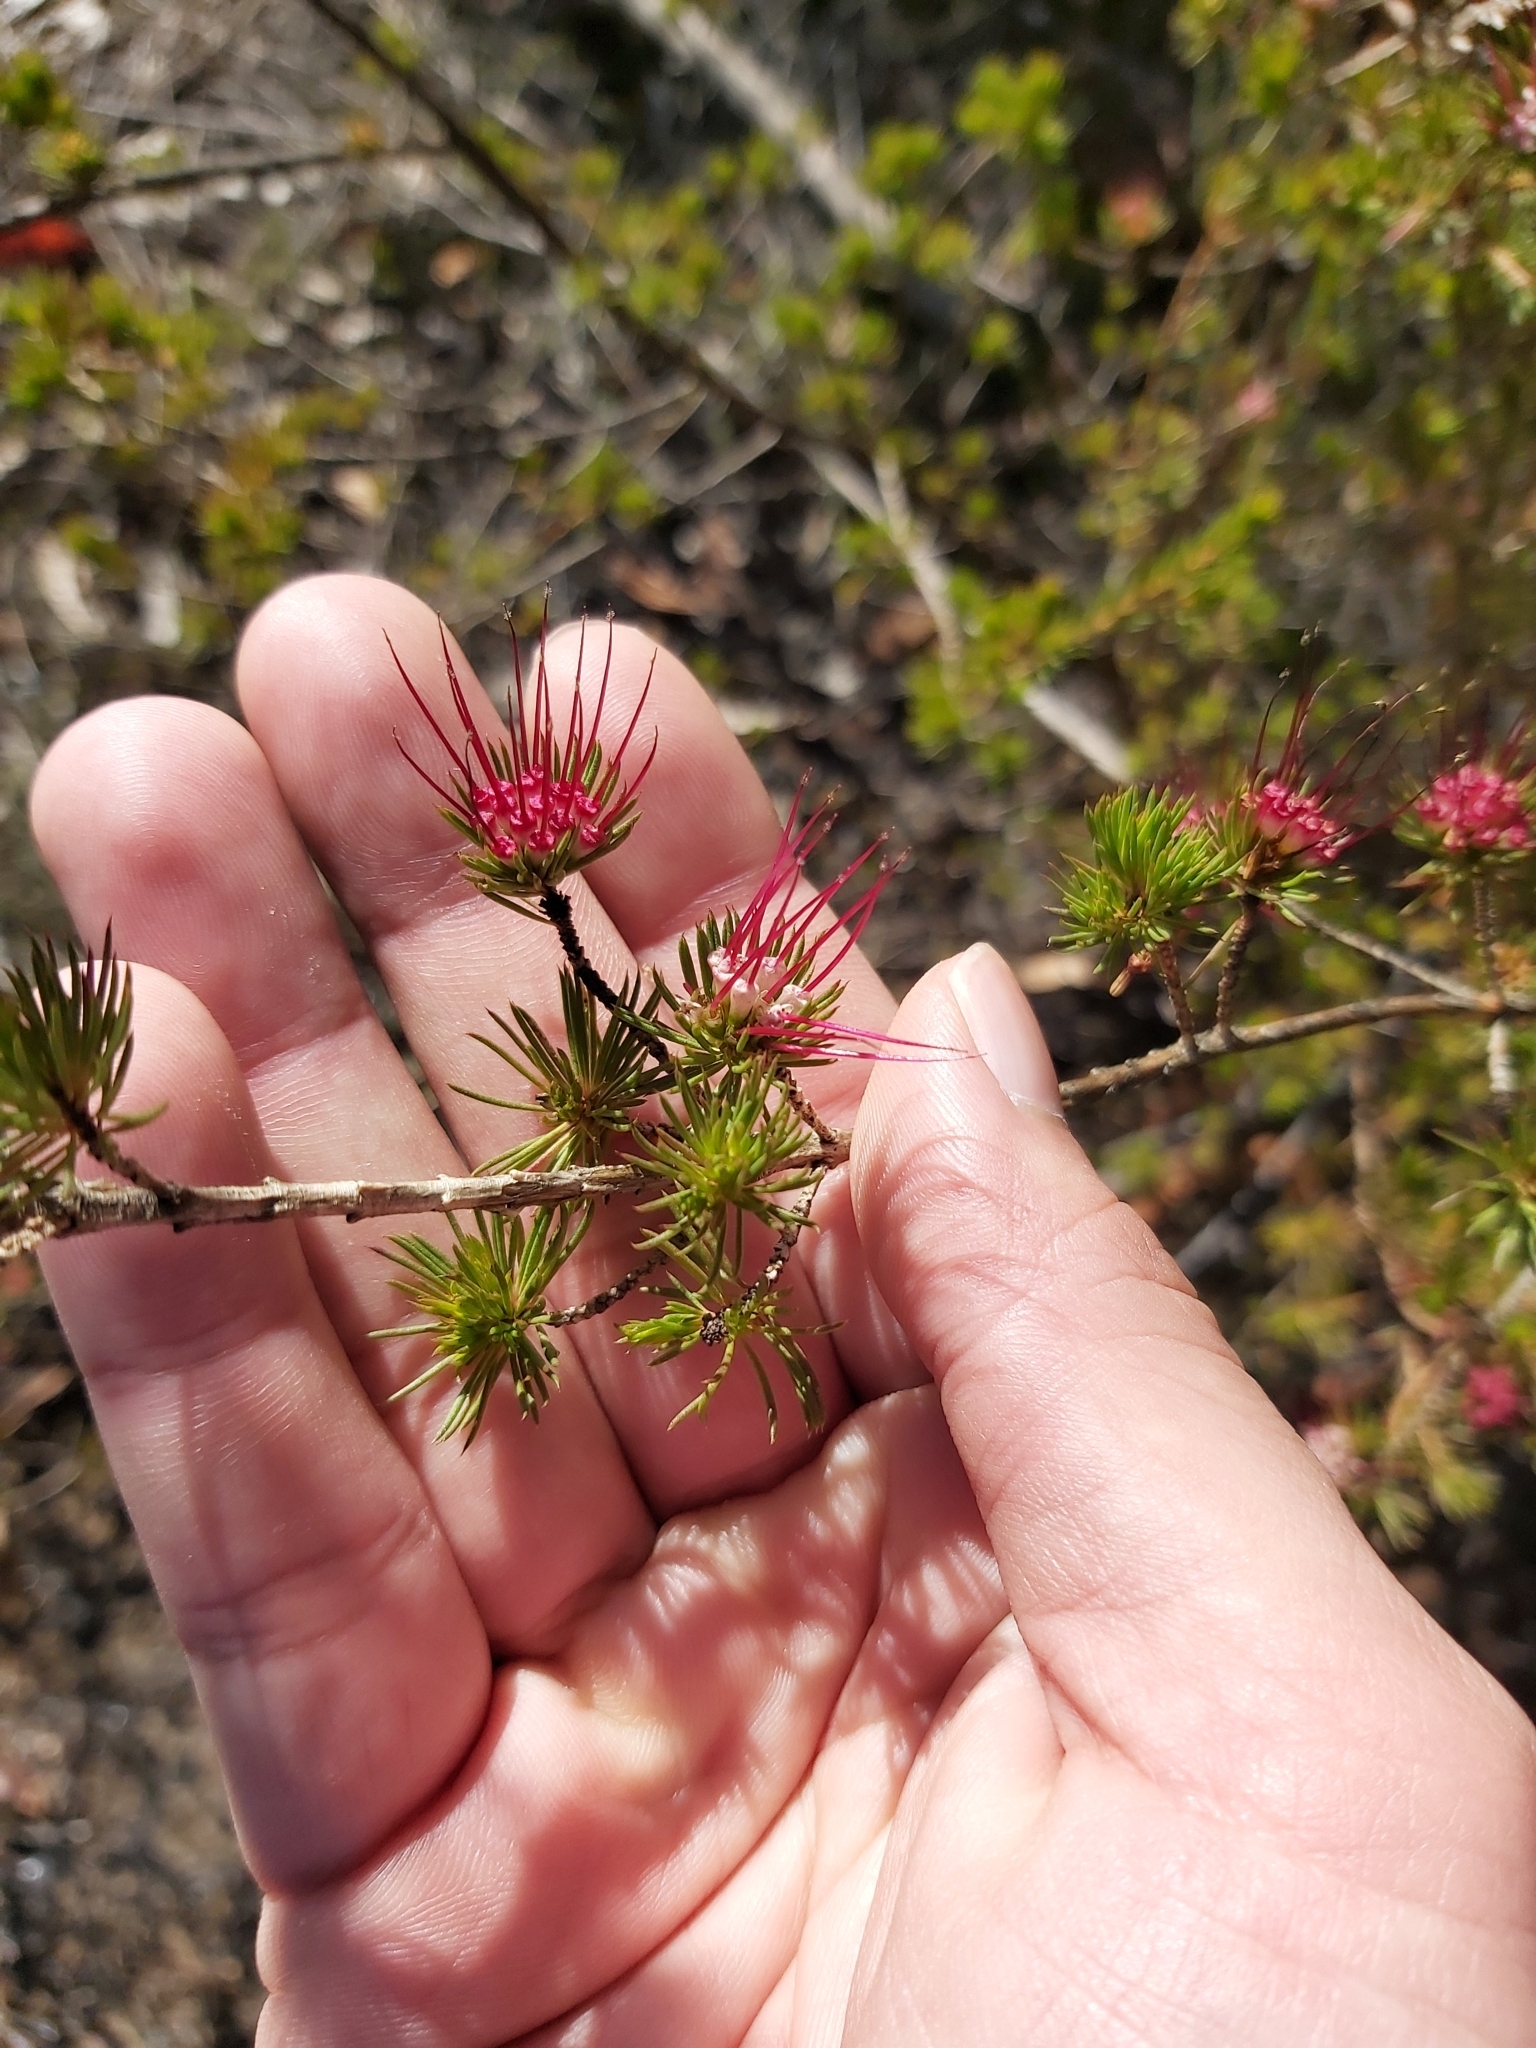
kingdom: Plantae
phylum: Tracheophyta
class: Magnoliopsida
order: Myrtales
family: Myrtaceae
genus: Darwinia
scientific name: Darwinia fascicularis
